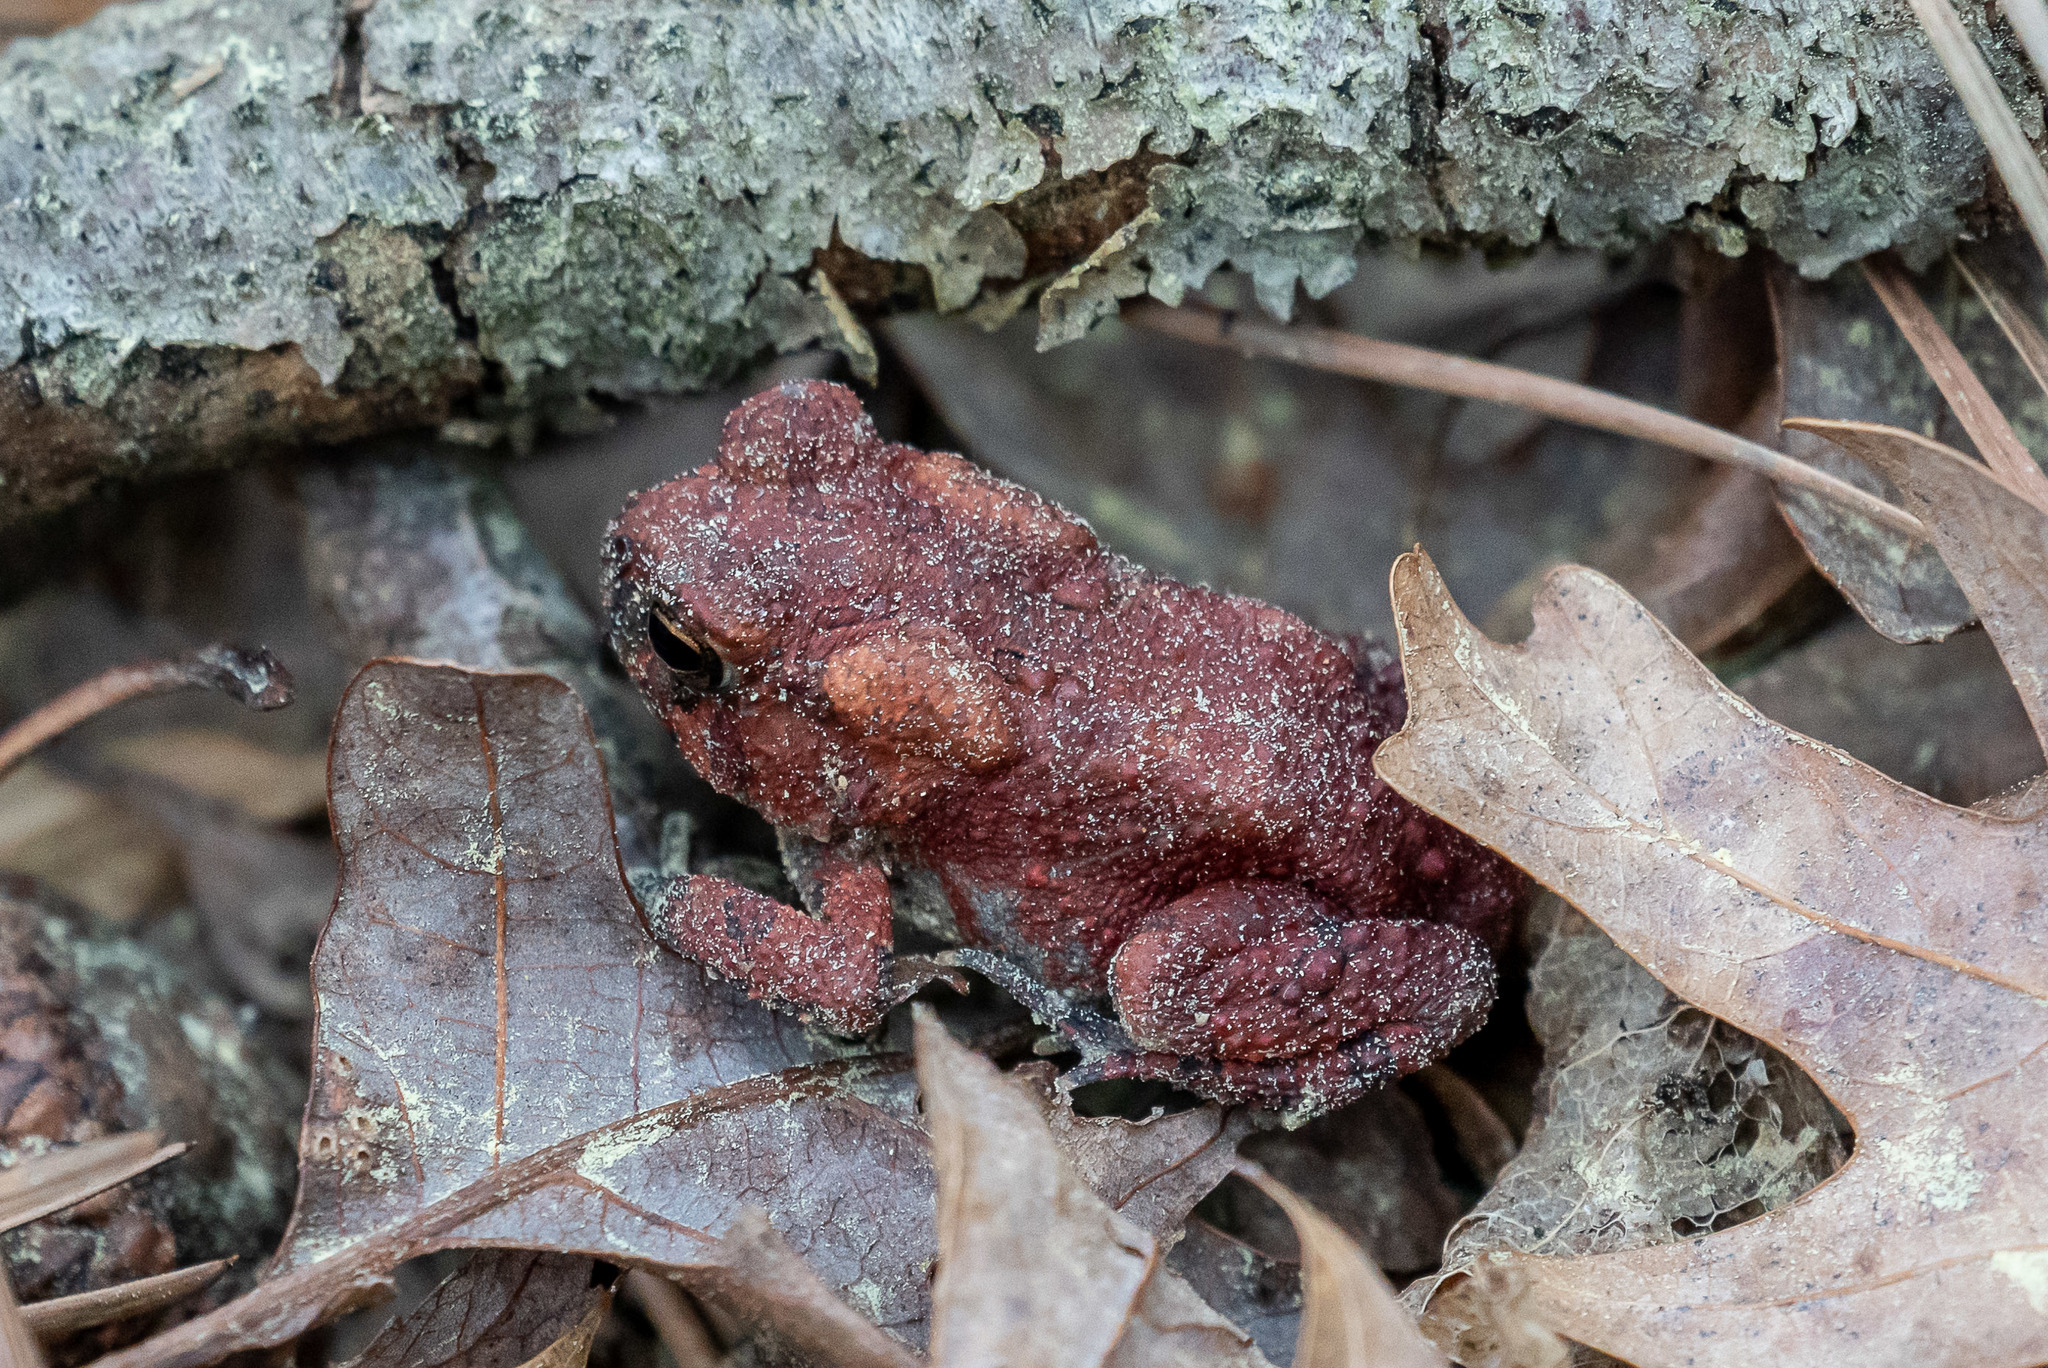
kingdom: Animalia
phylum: Chordata
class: Amphibia
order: Anura
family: Bufonidae
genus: Anaxyrus
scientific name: Anaxyrus americanus
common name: American toad
